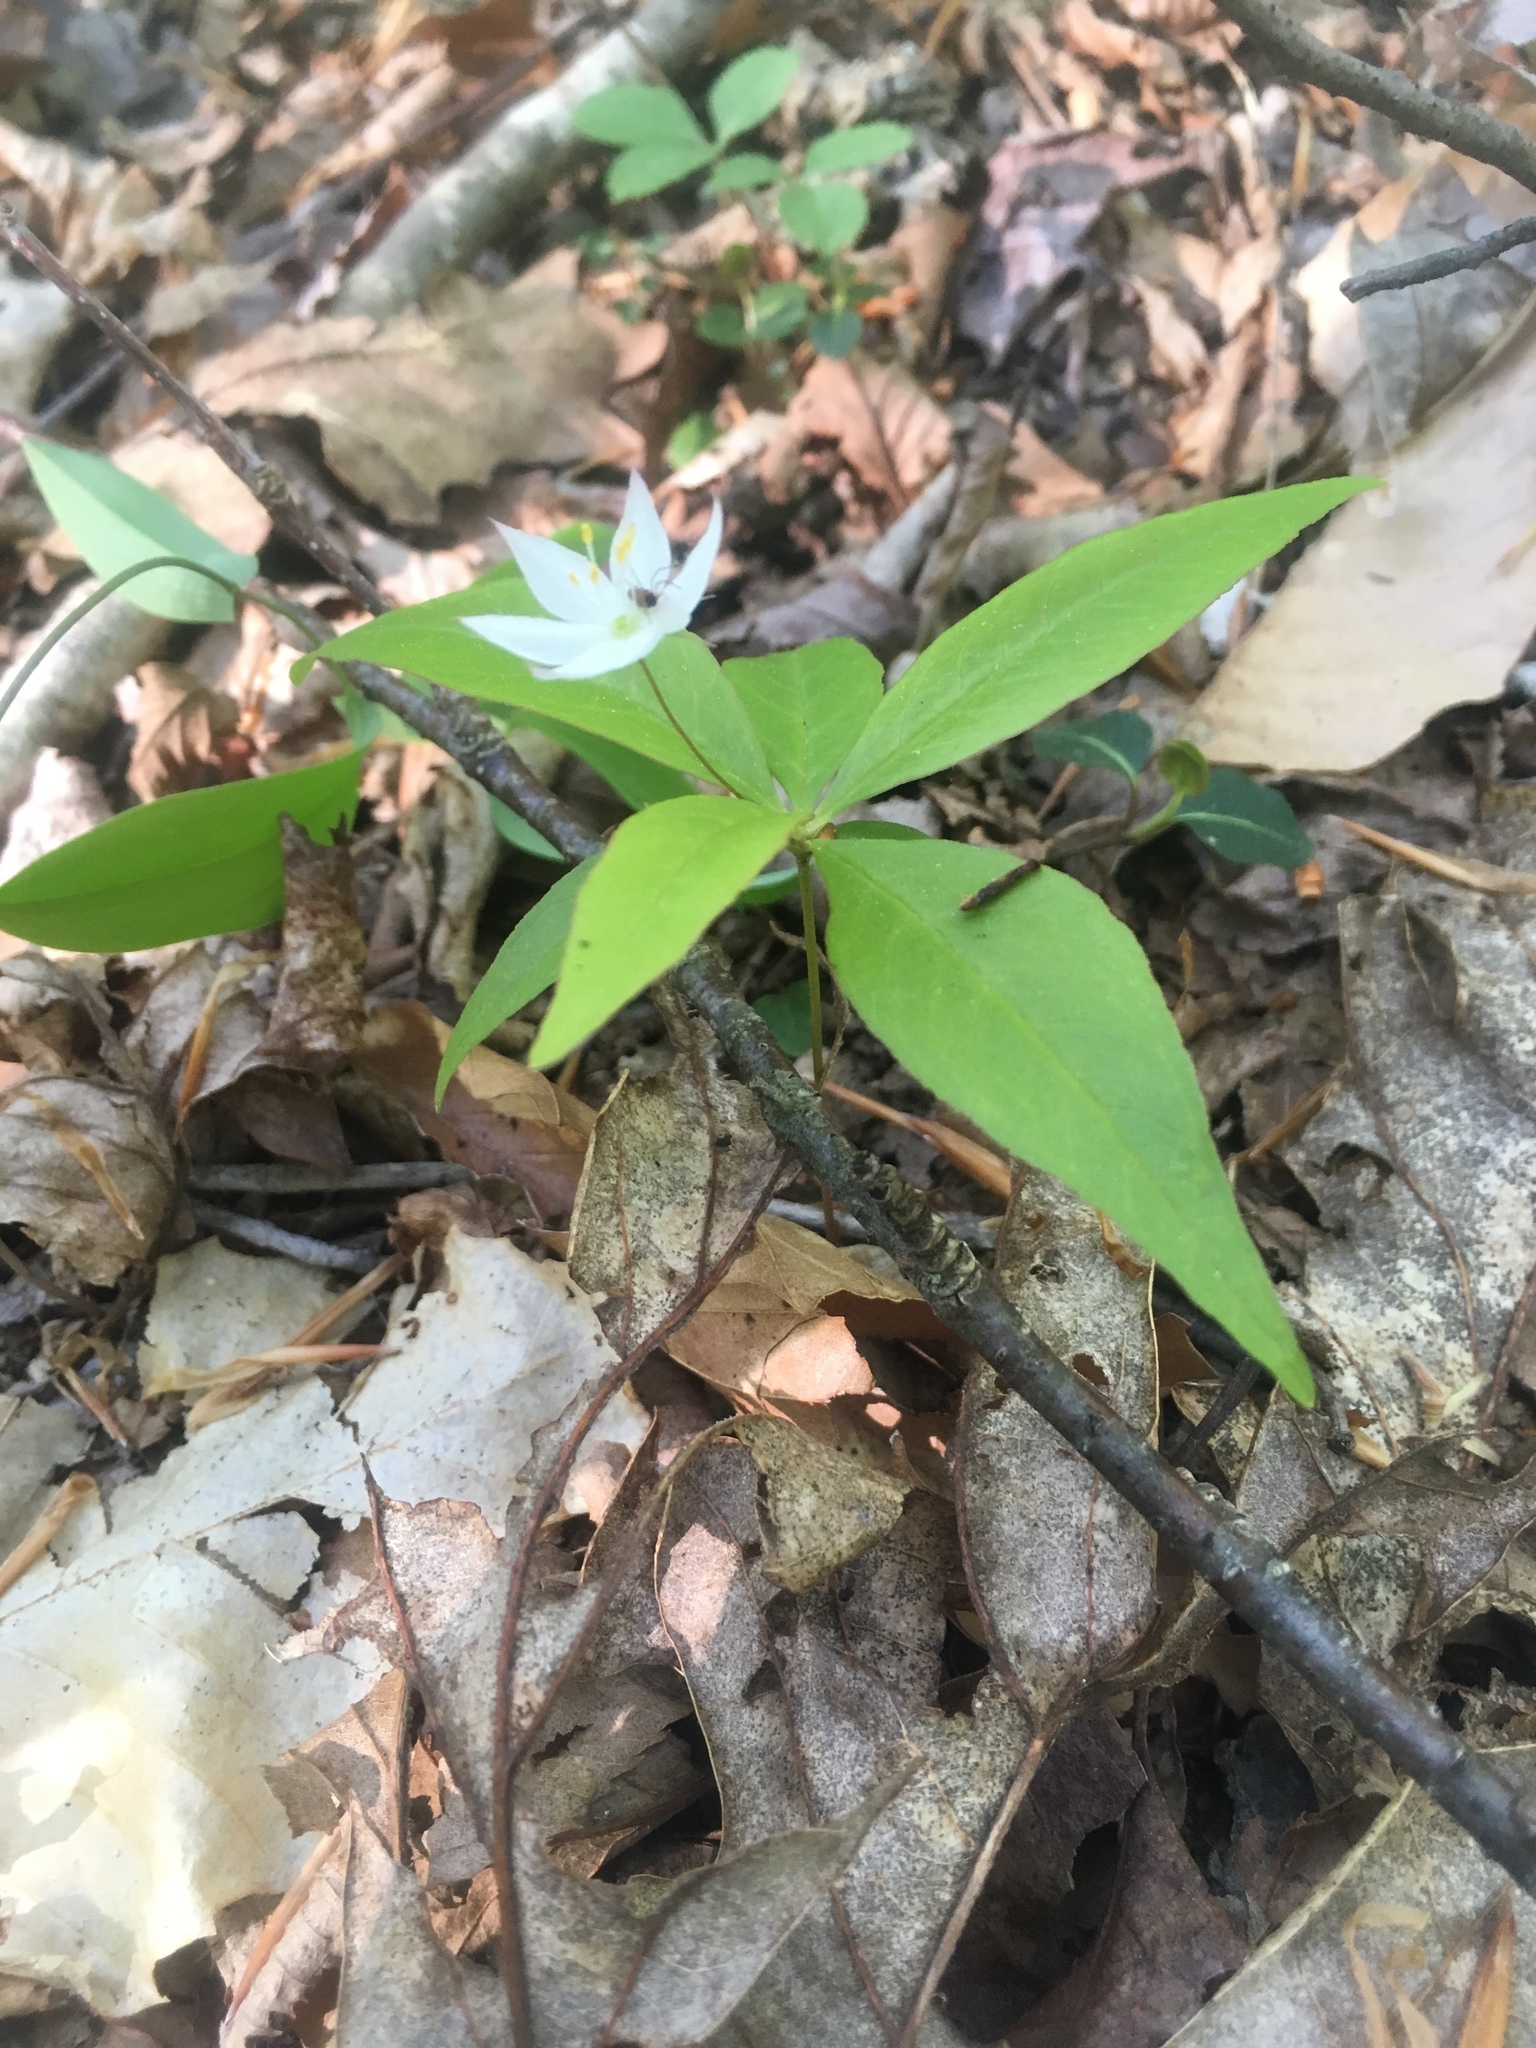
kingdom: Plantae
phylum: Tracheophyta
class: Magnoliopsida
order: Ericales
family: Primulaceae
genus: Lysimachia
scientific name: Lysimachia borealis
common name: American starflower
